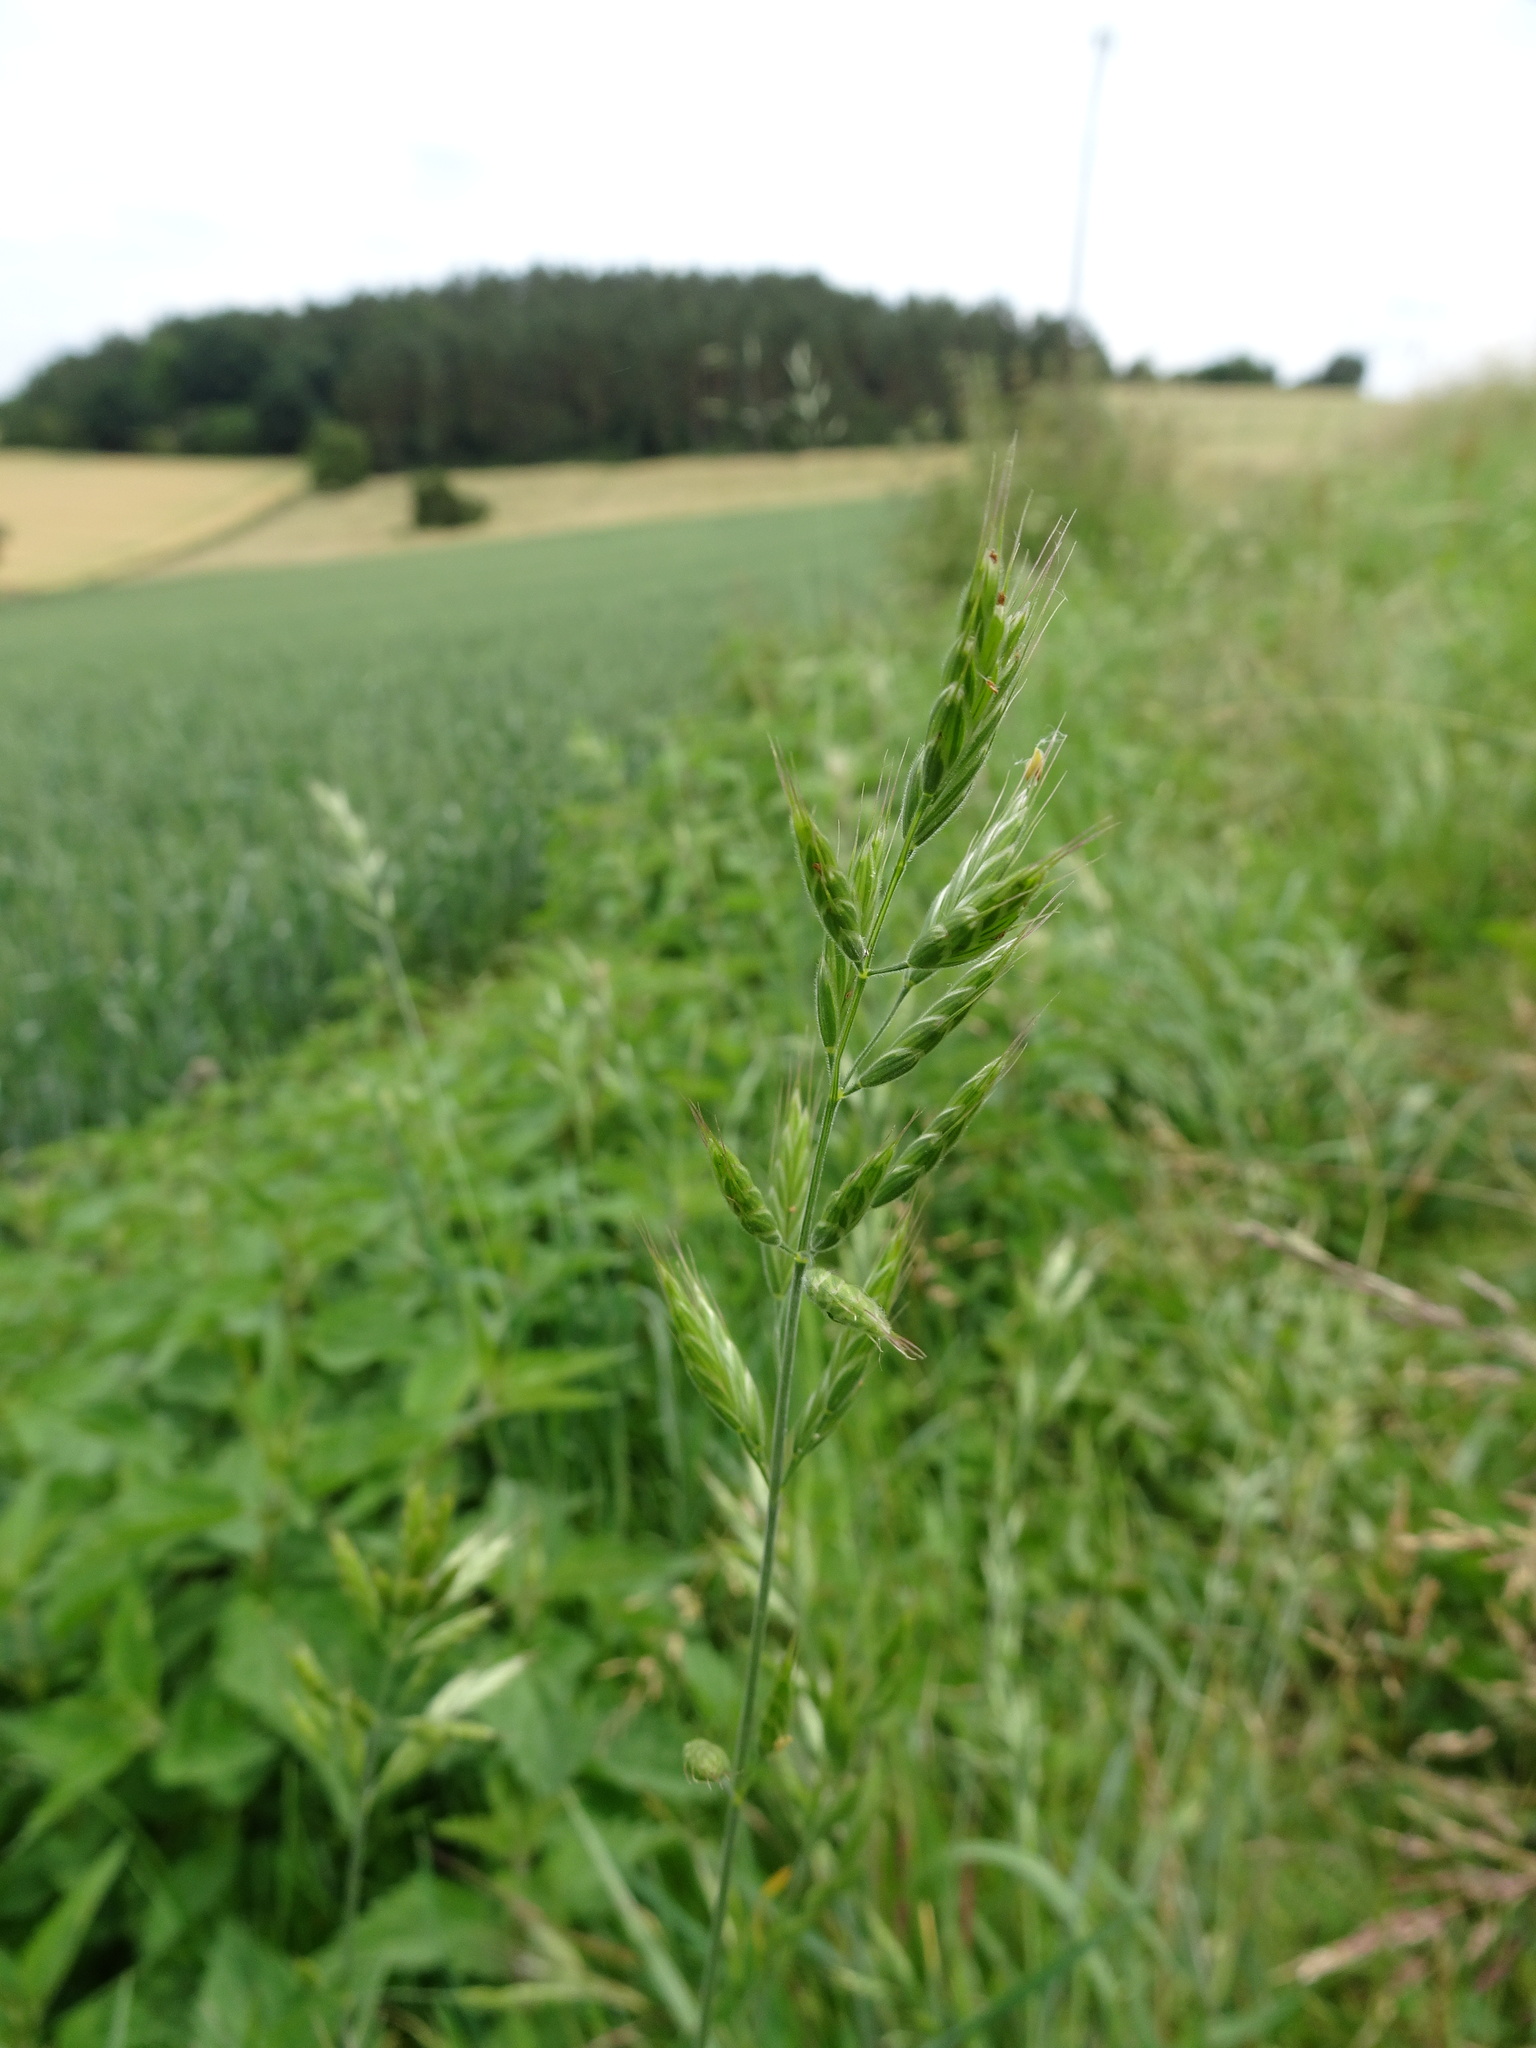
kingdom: Plantae
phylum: Tracheophyta
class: Liliopsida
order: Poales
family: Poaceae
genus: Bromus
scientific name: Bromus hordeaceus
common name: Soft brome
